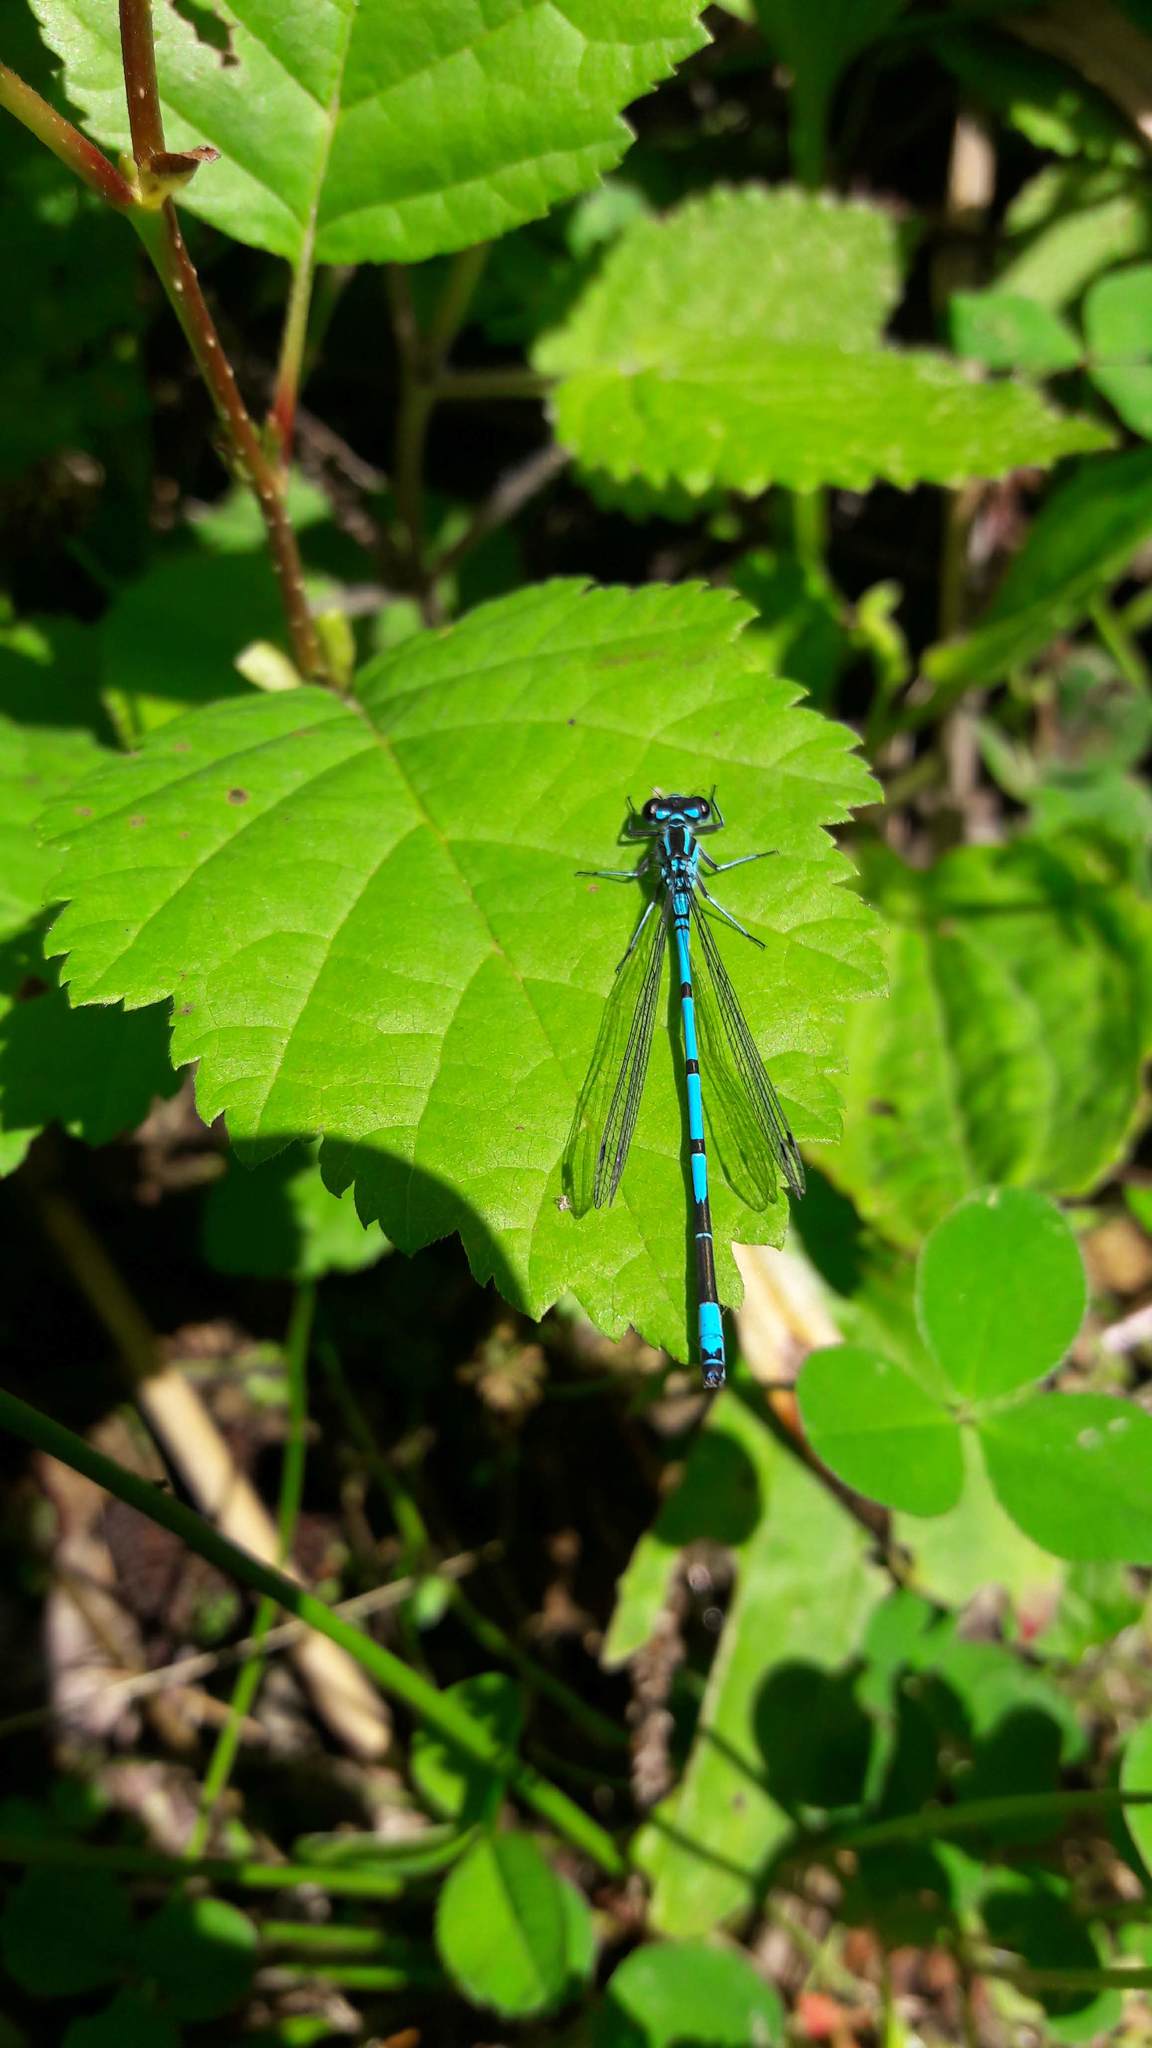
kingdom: Animalia
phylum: Arthropoda
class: Insecta
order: Odonata
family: Coenagrionidae
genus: Coenagrion
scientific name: Coenagrion puella
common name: Azure damselfly
